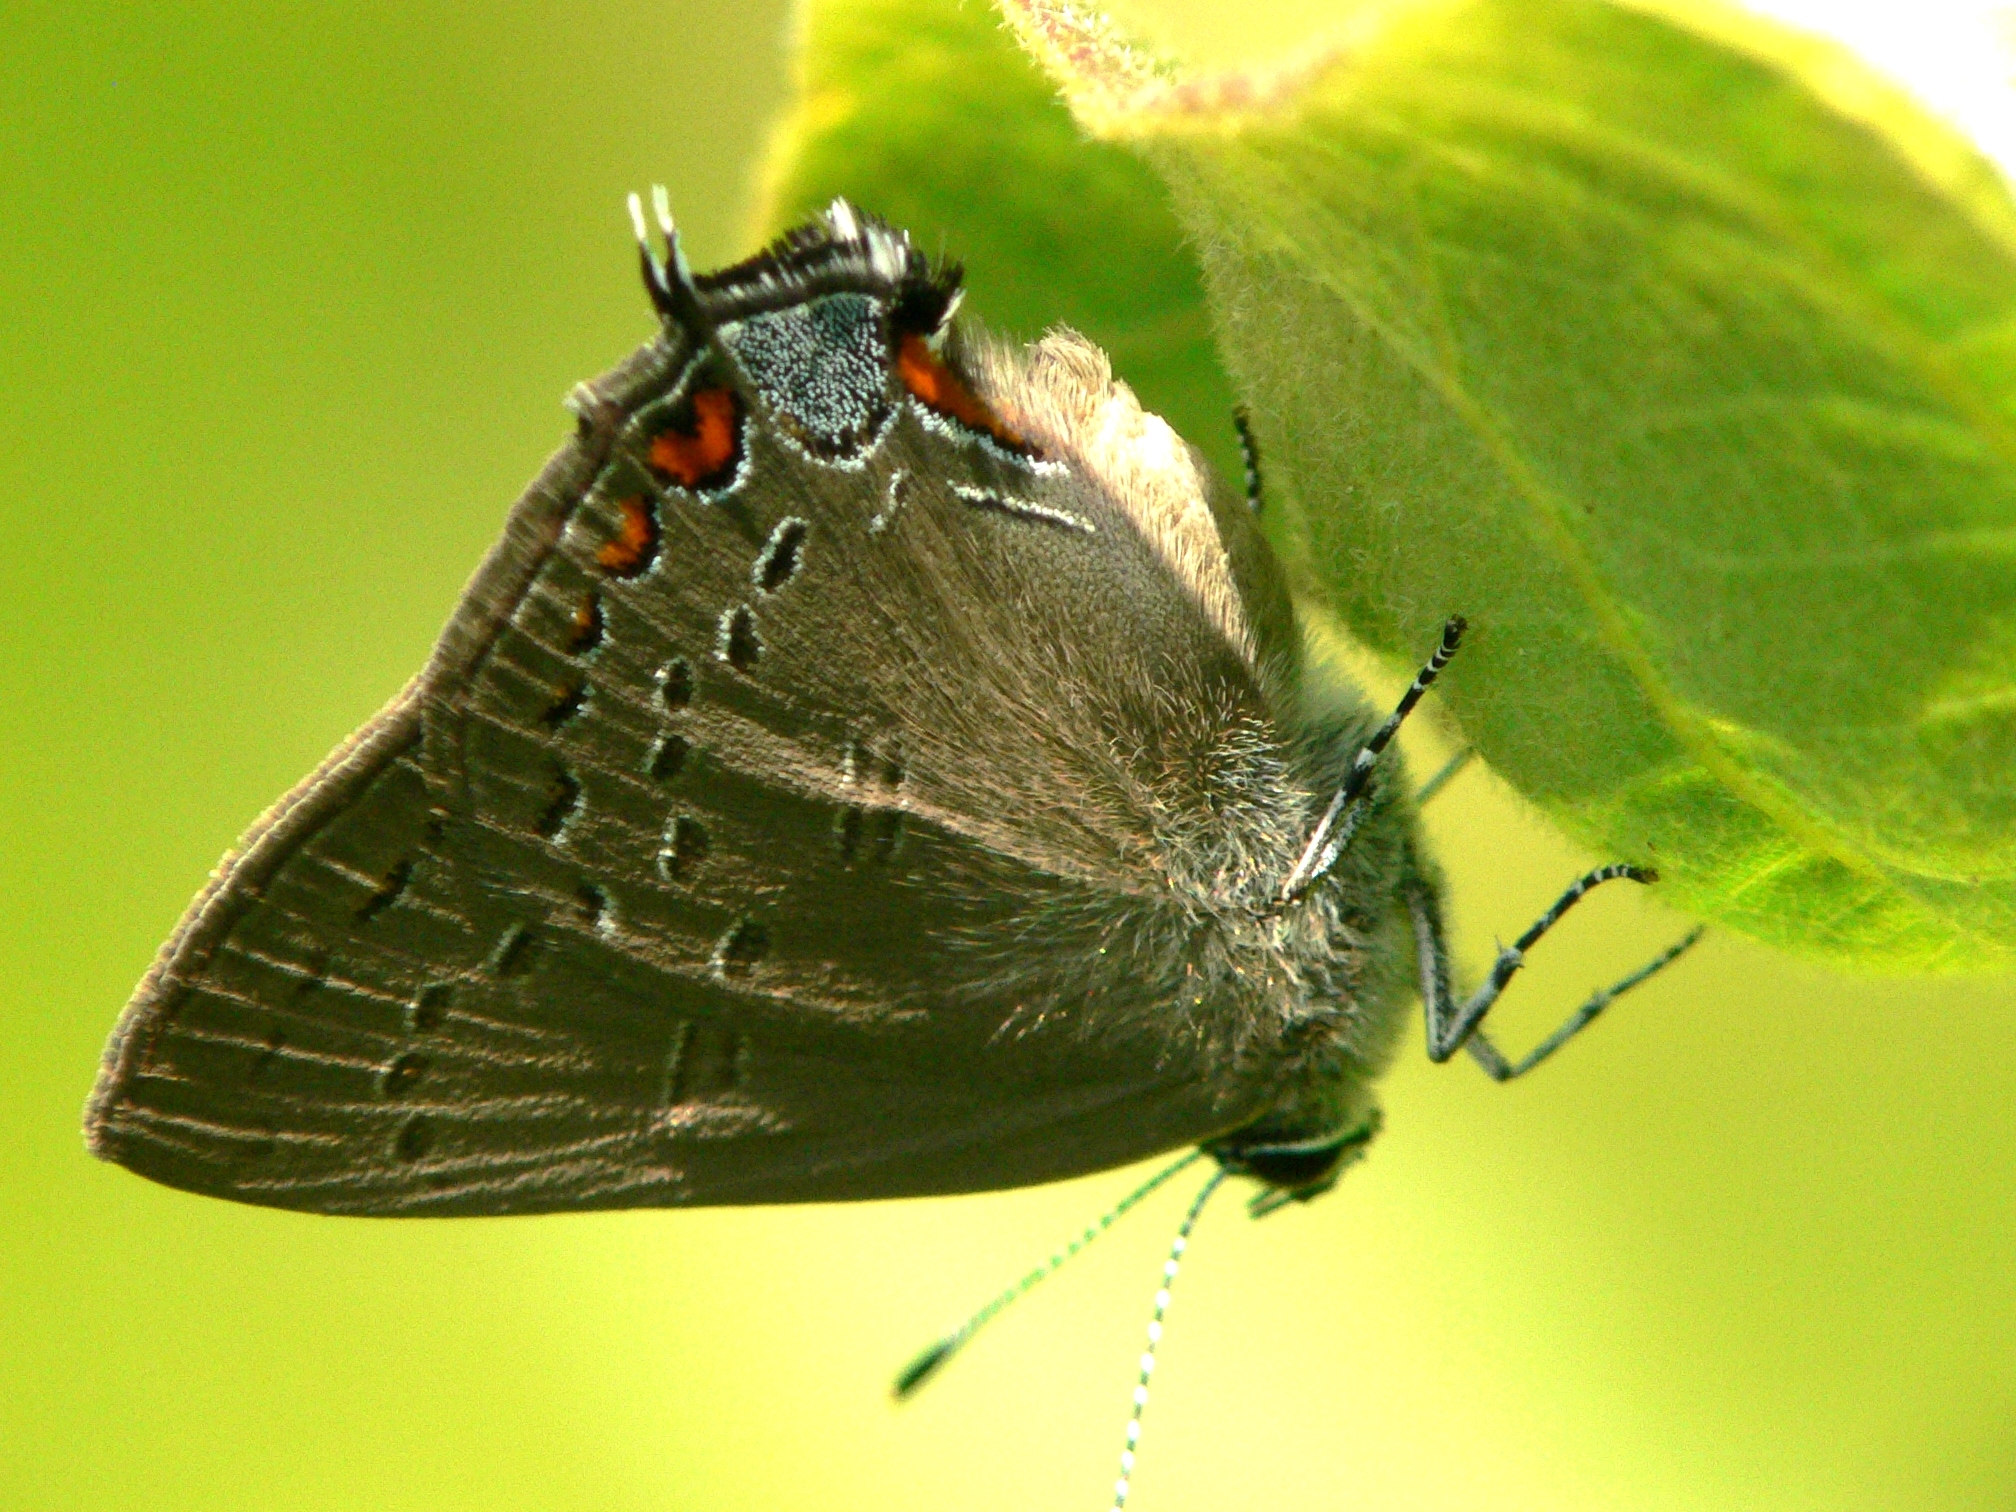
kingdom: Animalia
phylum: Arthropoda
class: Insecta
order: Lepidoptera
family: Lycaenidae
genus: Satyrium
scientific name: Satyrium edwardsii
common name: Edwards' hairstreak
